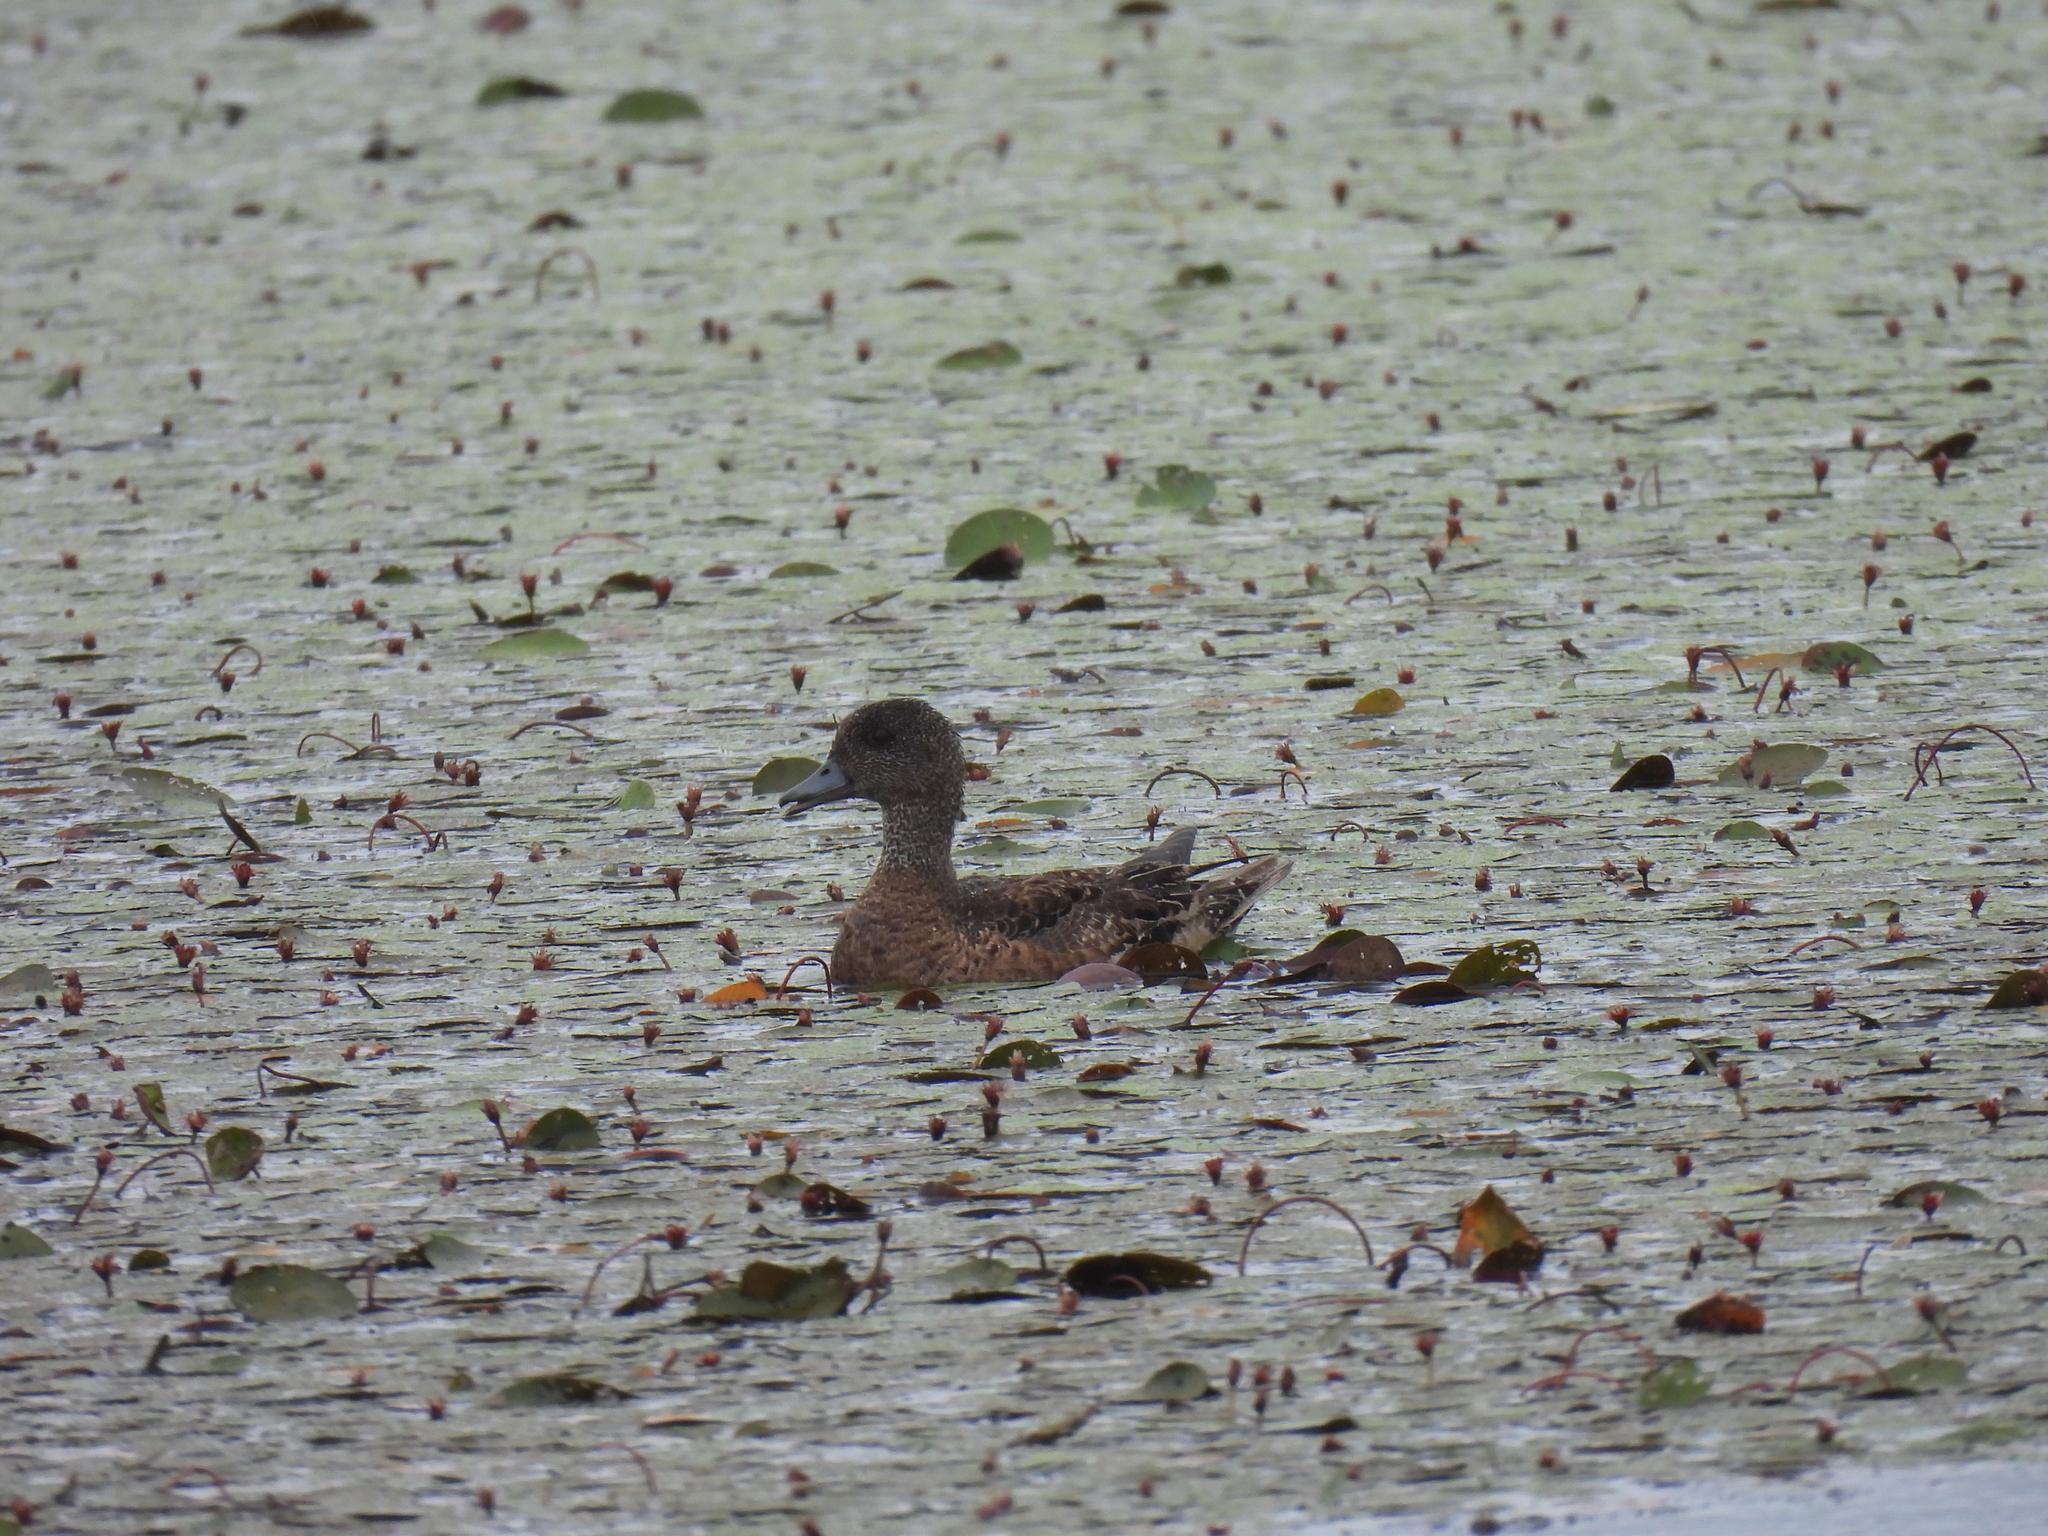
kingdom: Animalia
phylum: Chordata
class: Aves
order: Anseriformes
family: Anatidae
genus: Mareca
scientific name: Mareca americana
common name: American wigeon
